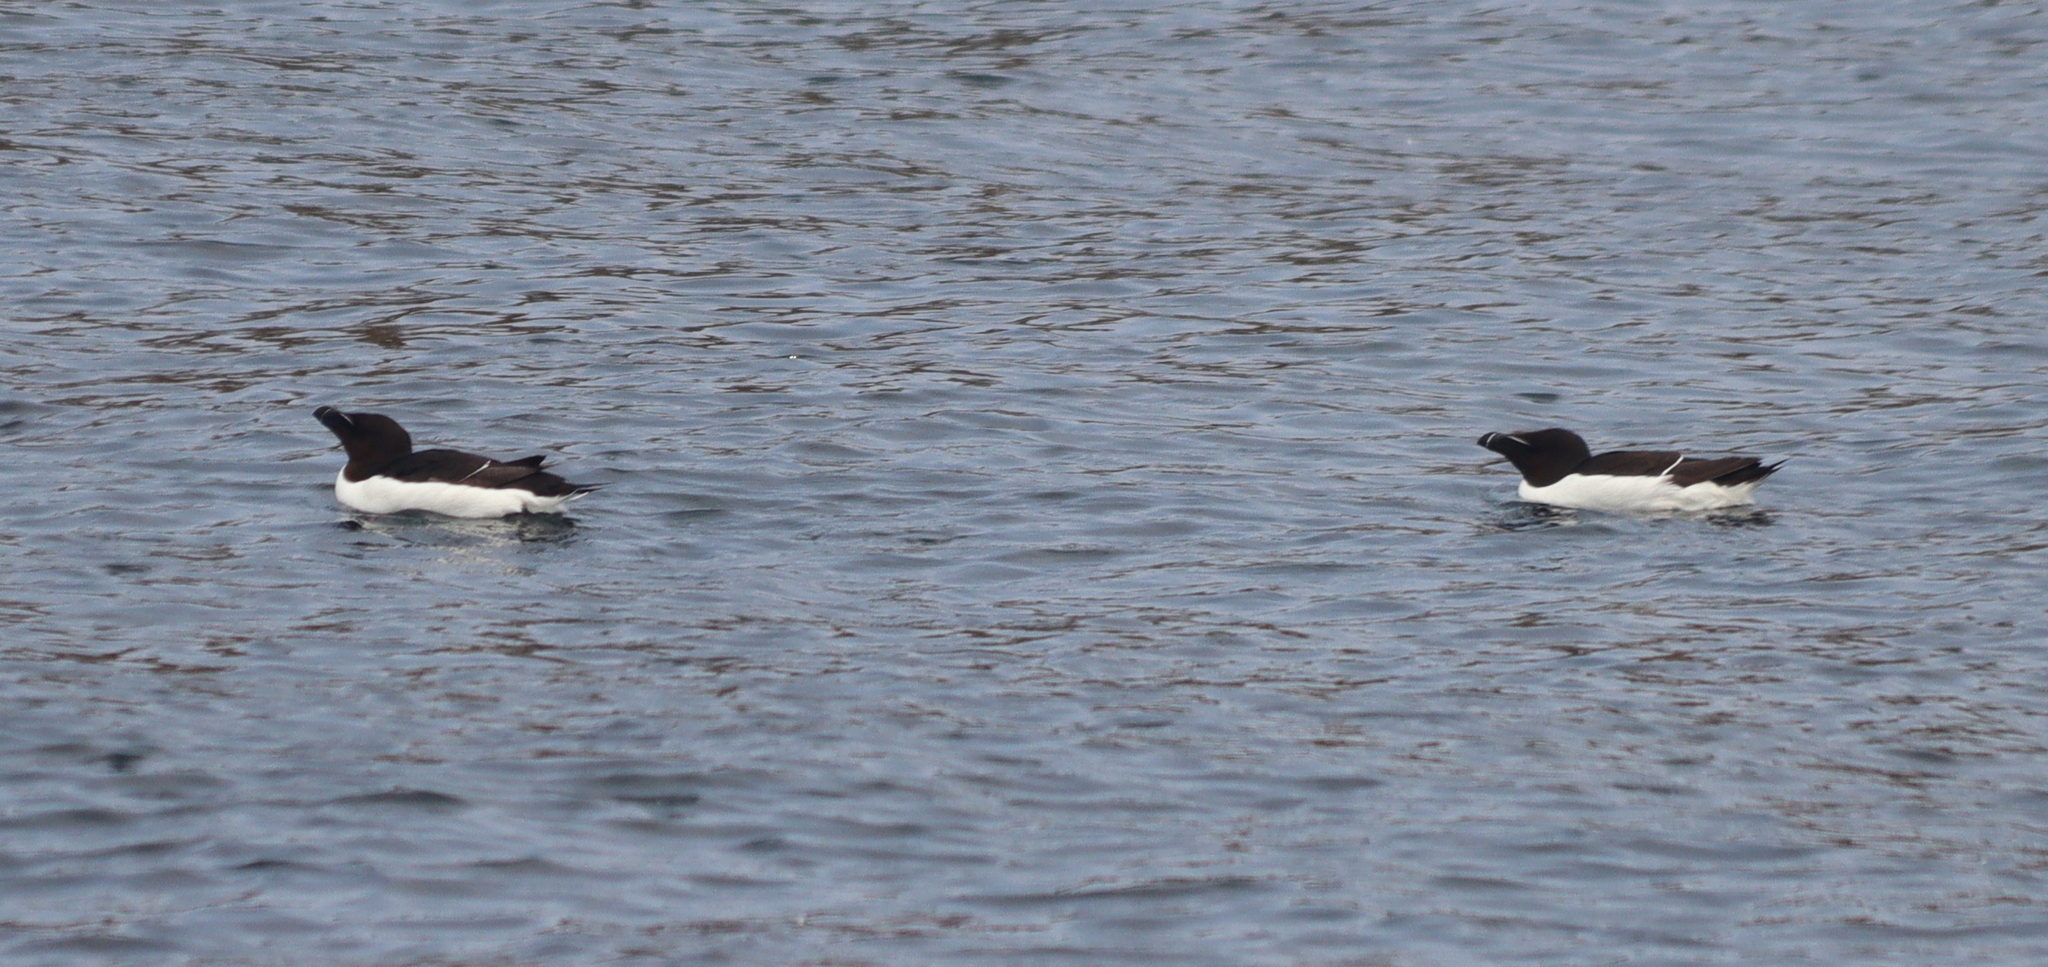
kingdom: Animalia
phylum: Chordata
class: Aves
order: Charadriiformes
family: Alcidae
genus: Alca
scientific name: Alca torda
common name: Razorbill
